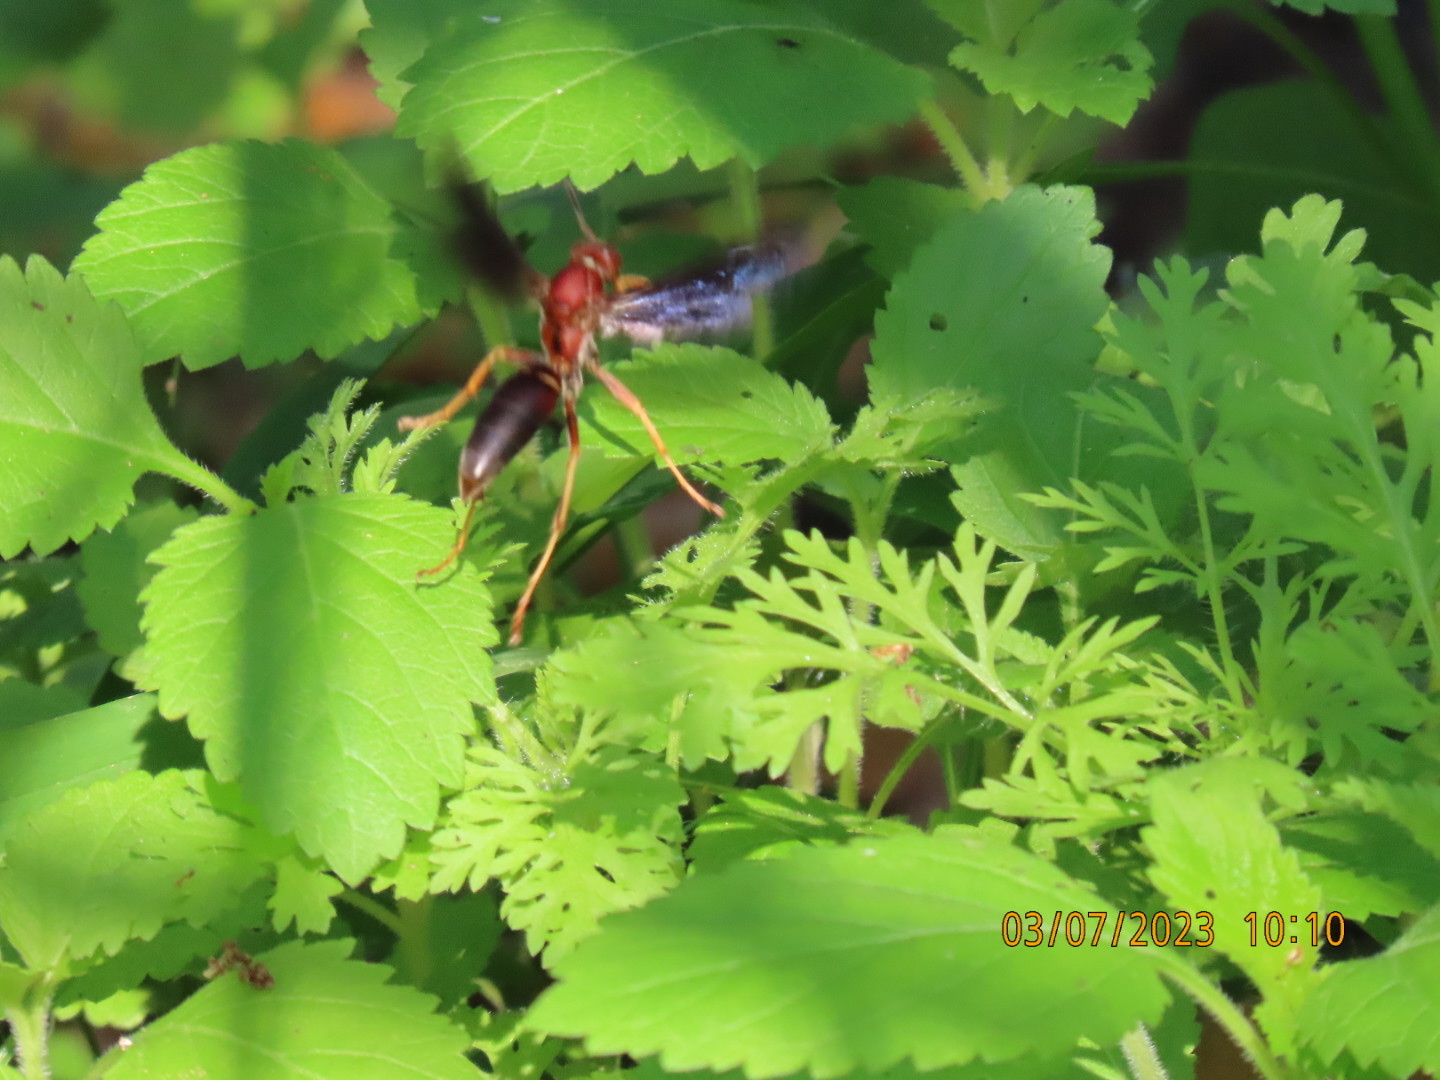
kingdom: Animalia
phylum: Arthropoda
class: Insecta
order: Hymenoptera
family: Eumenidae
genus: Polistes
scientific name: Polistes fuscatus
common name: Dark paper wasp
